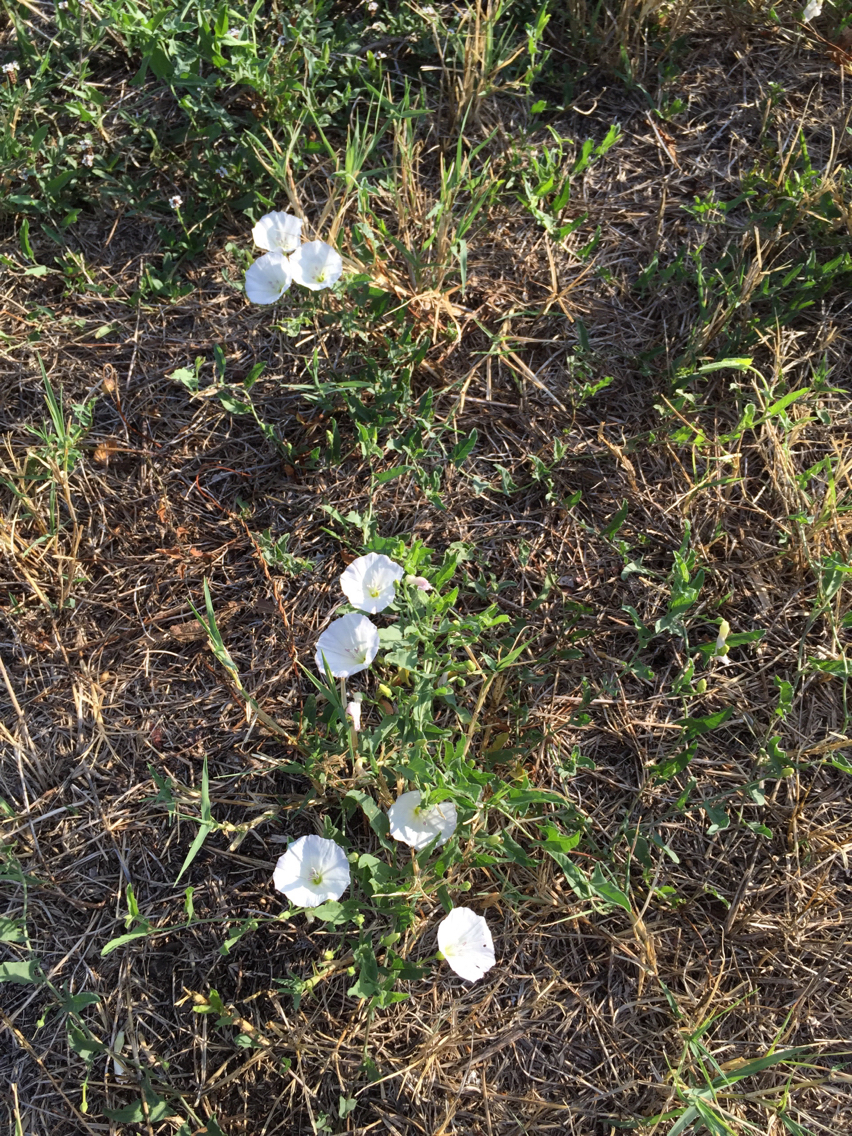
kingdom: Plantae
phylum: Tracheophyta
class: Magnoliopsida
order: Solanales
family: Convolvulaceae
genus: Convolvulus
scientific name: Convolvulus arvensis
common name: Field bindweed
